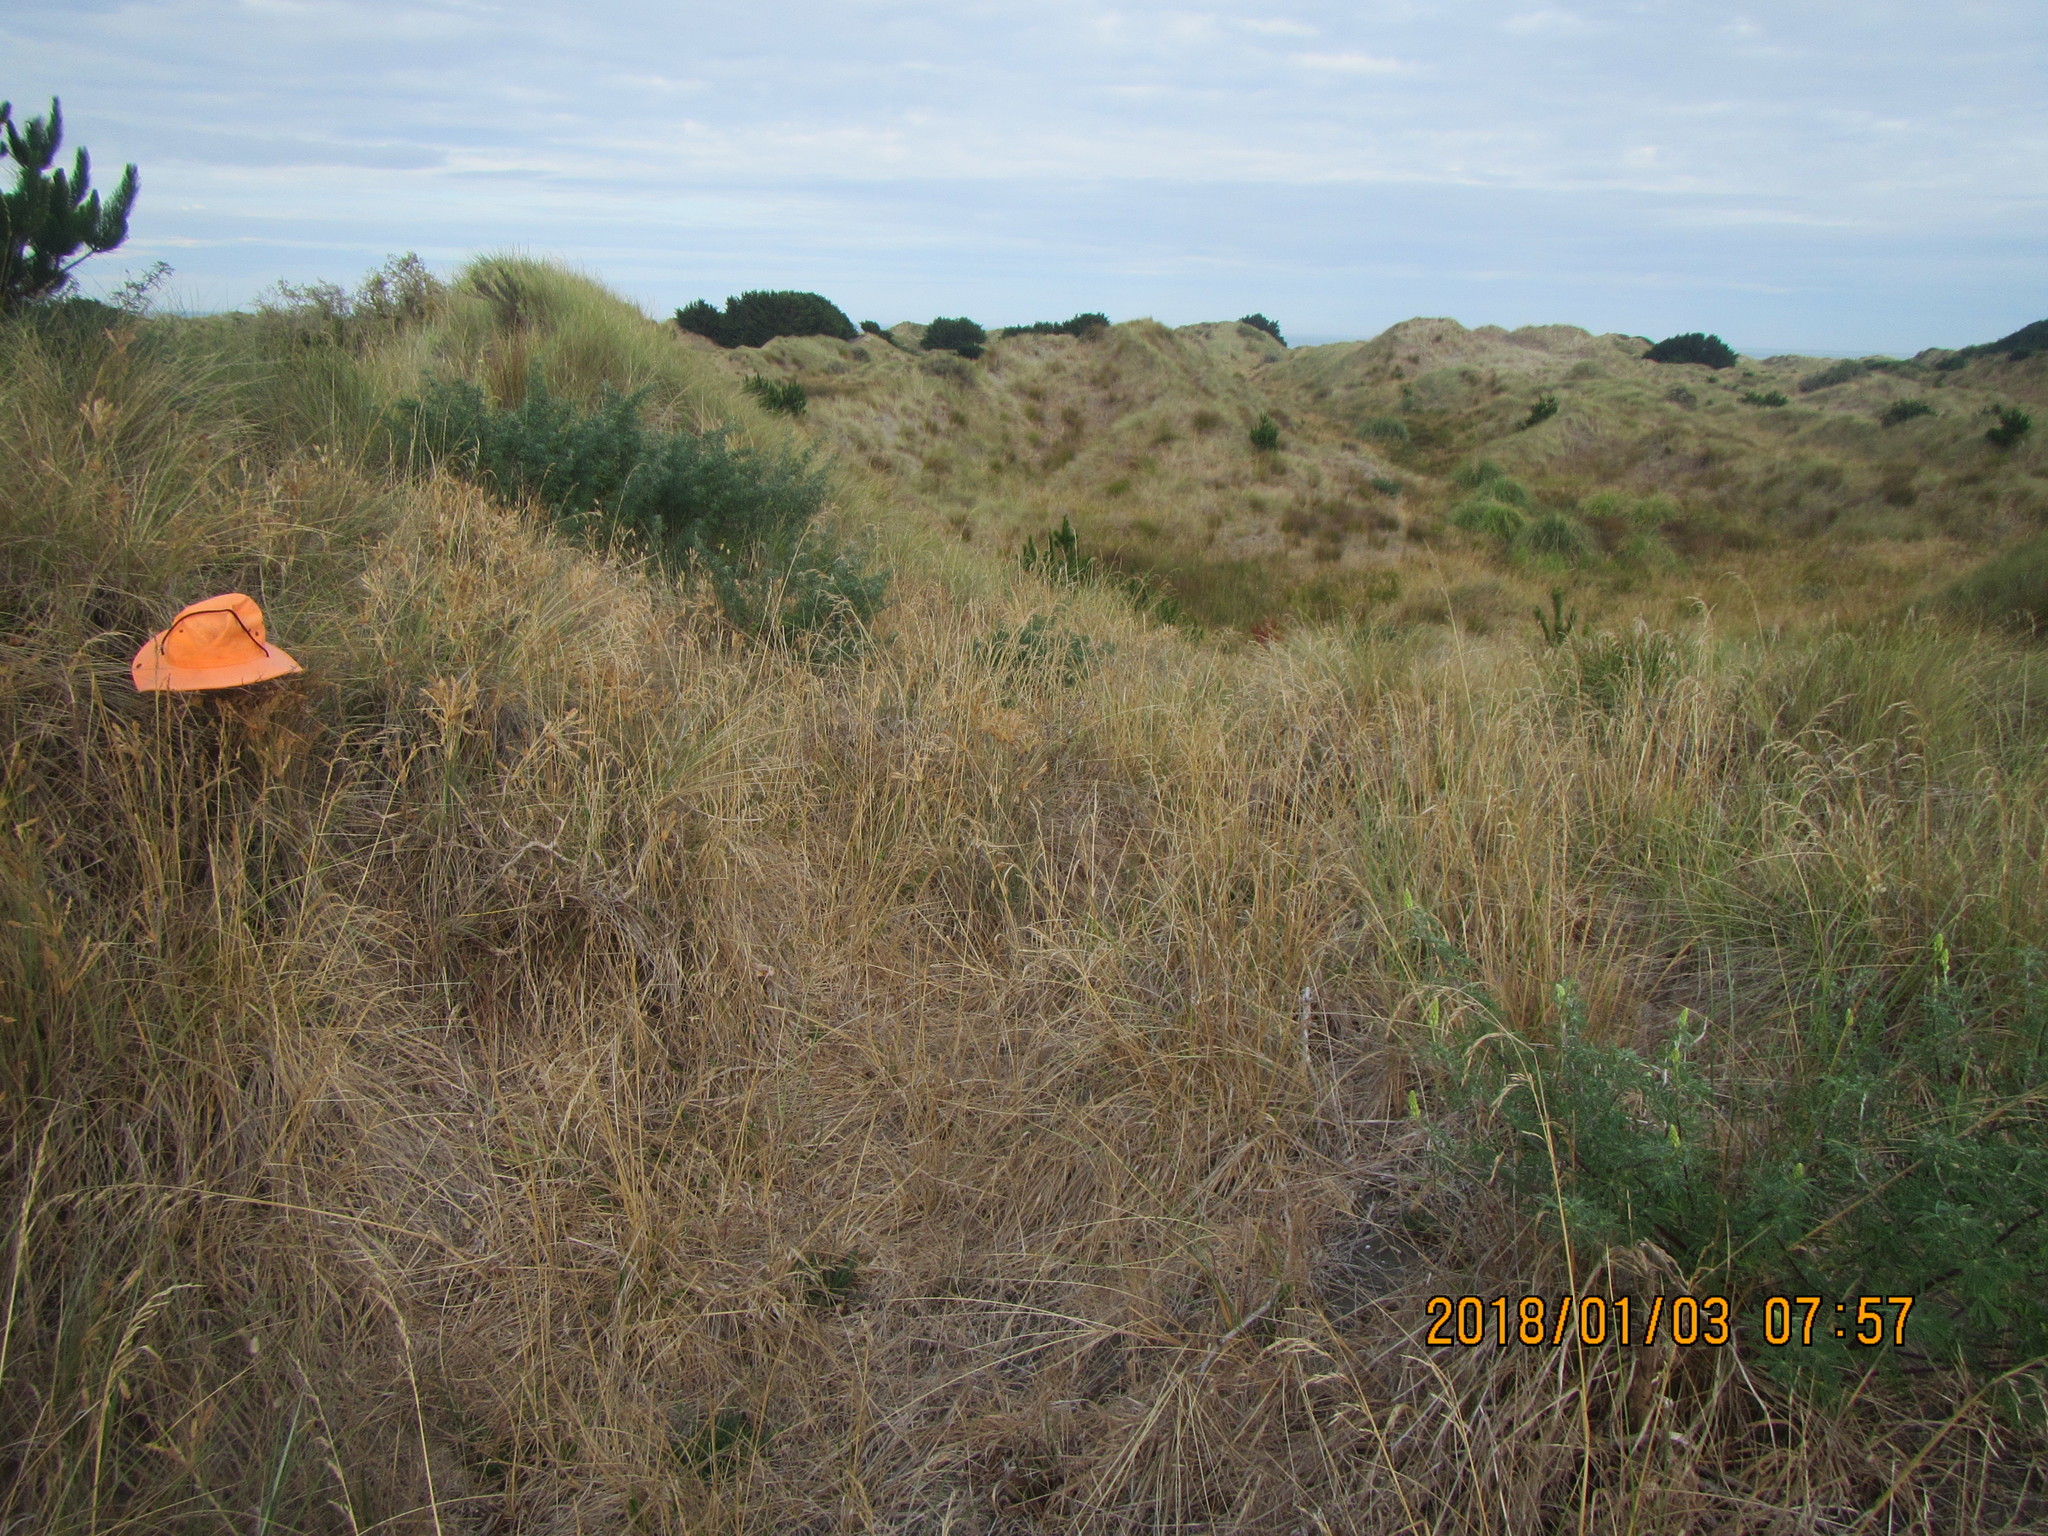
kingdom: Plantae
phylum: Tracheophyta
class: Liliopsida
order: Poales
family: Poaceae
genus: Spinifex
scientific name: Spinifex sericeus
